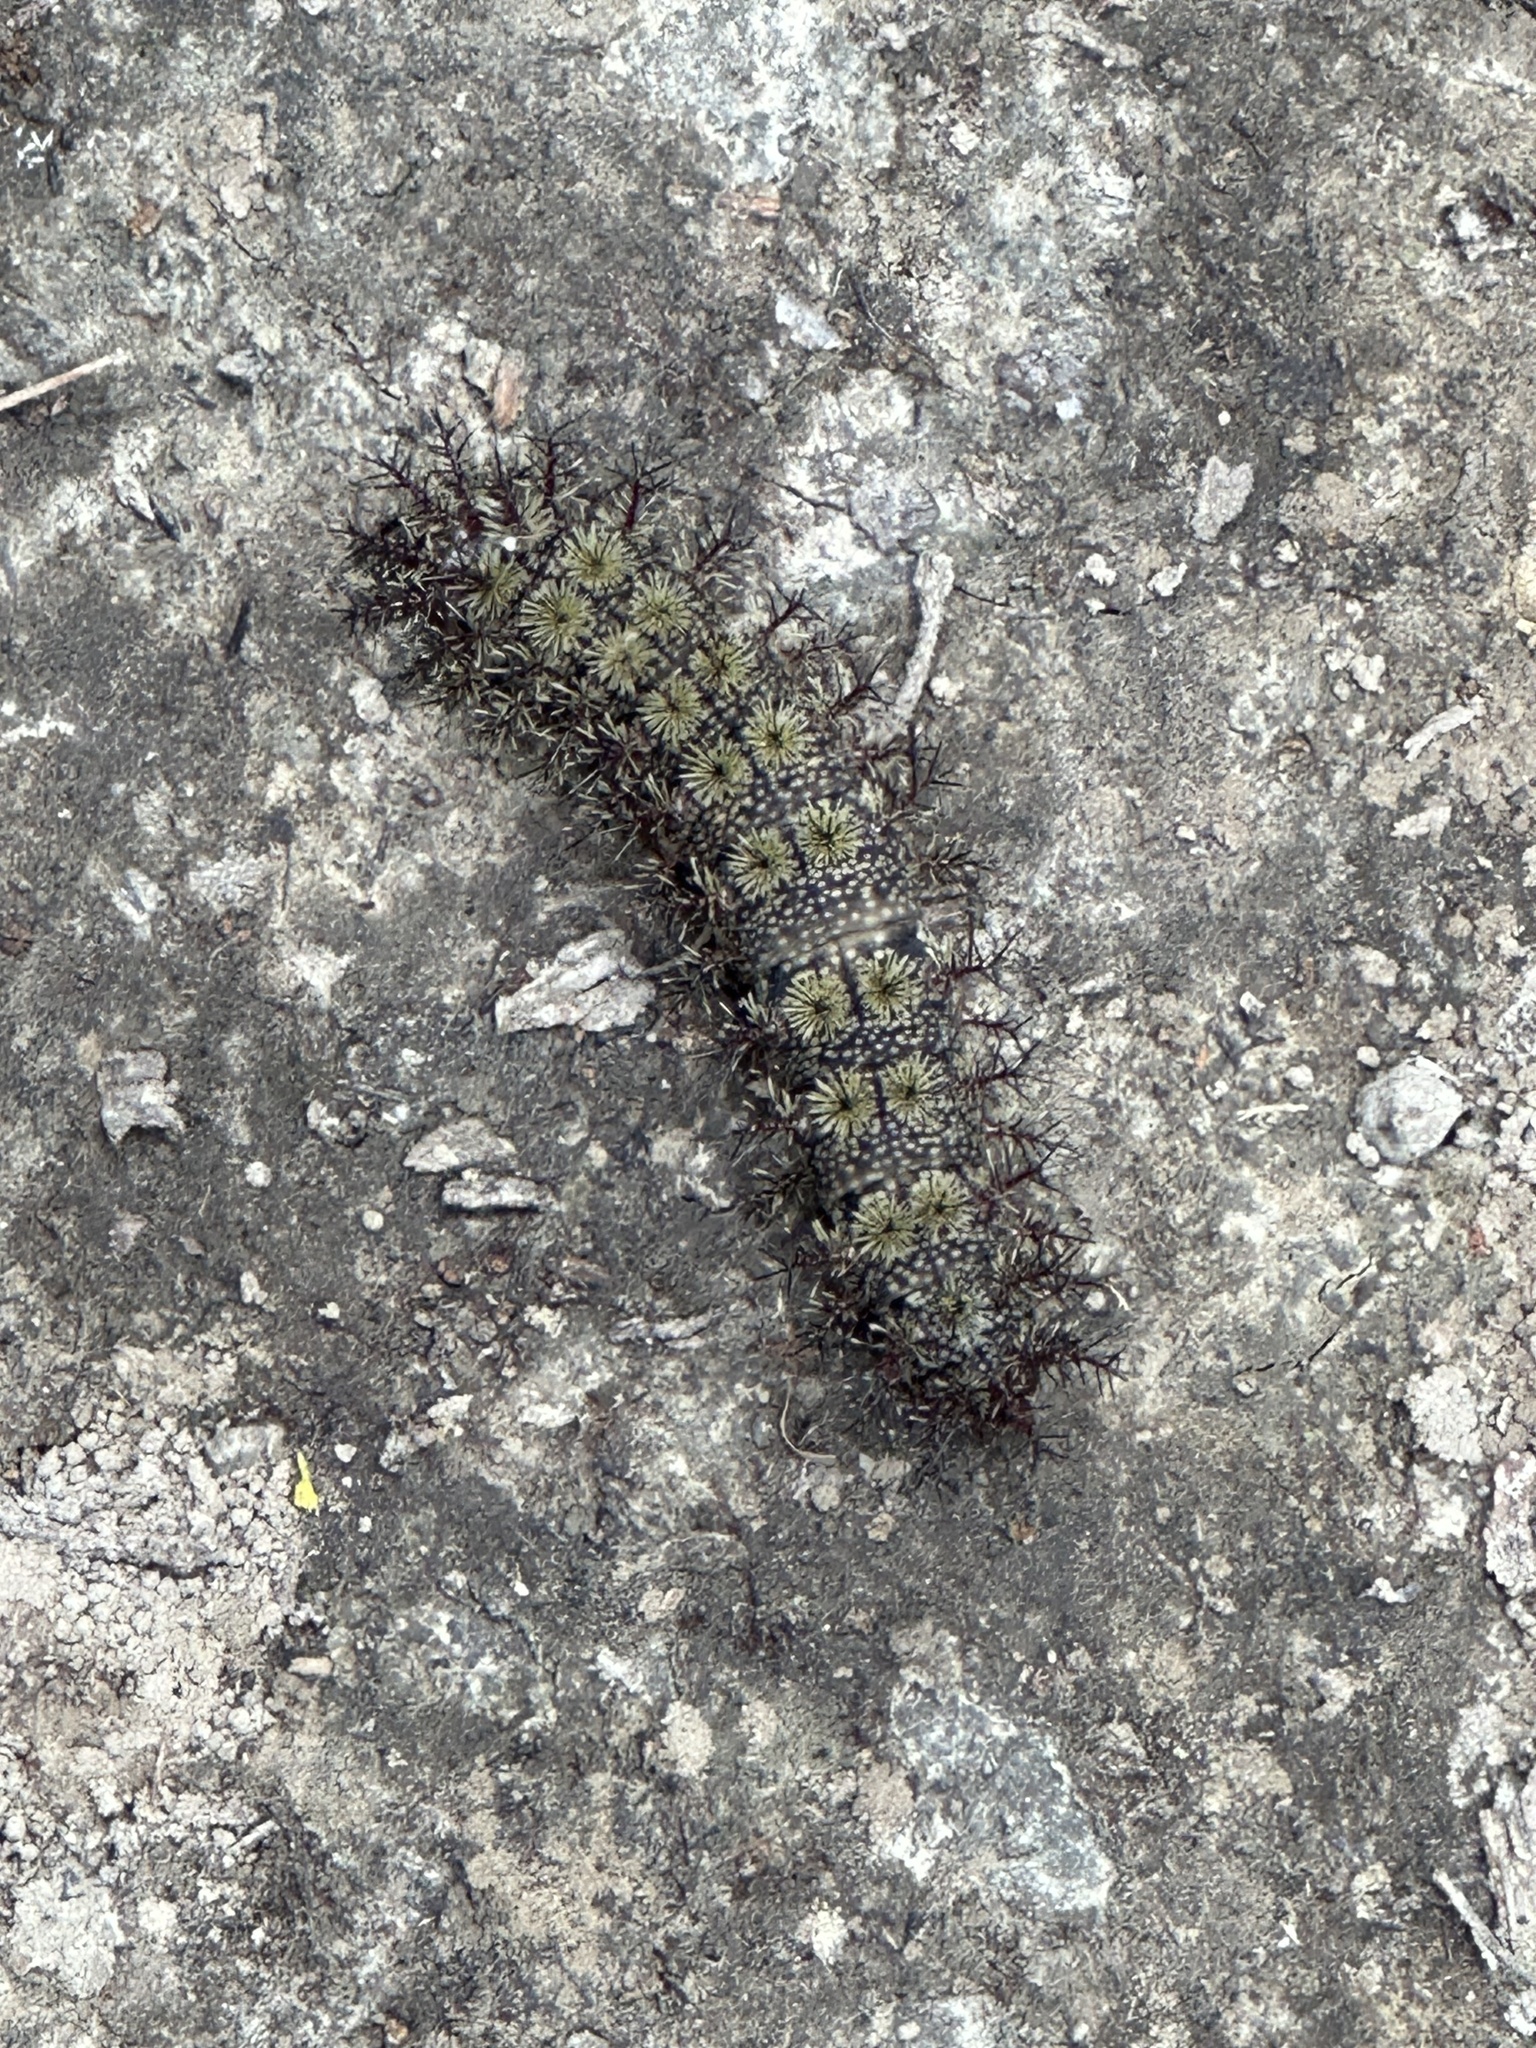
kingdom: Animalia
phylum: Arthropoda
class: Insecta
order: Lepidoptera
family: Saturniidae
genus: Hemileuca
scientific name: Hemileuca maia
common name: Eastern buckmoth
